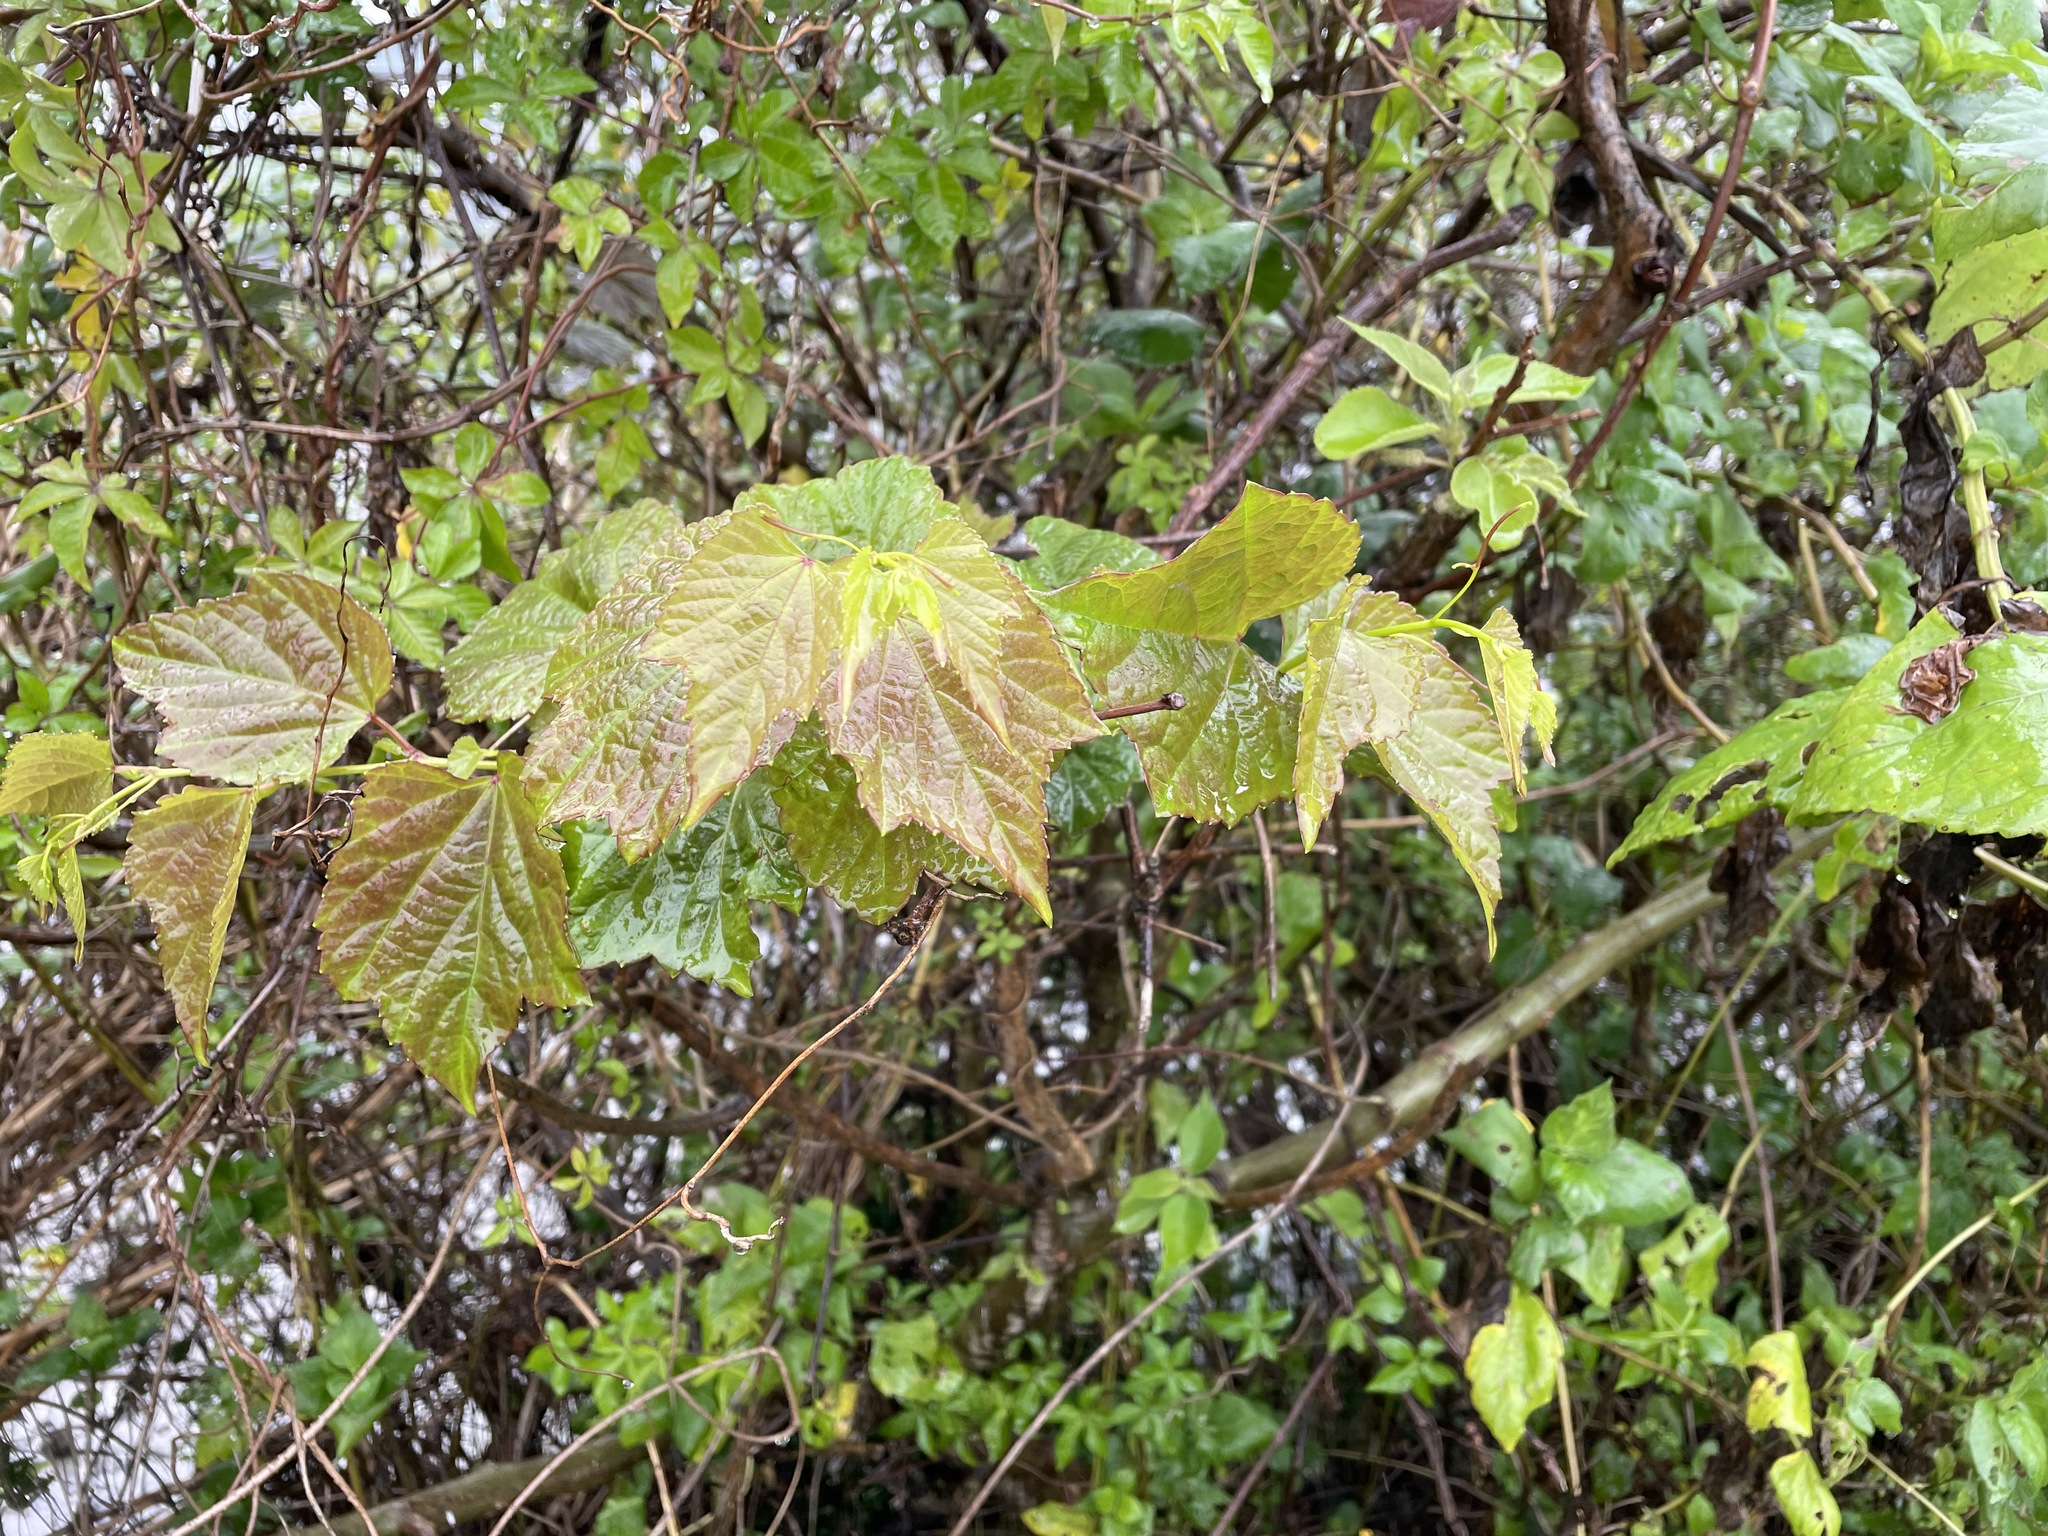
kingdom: Plantae
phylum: Tracheophyta
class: Magnoliopsida
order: Vitales
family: Vitaceae
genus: Ampelopsis
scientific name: Ampelopsis glandulosa
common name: Amur peppervine
